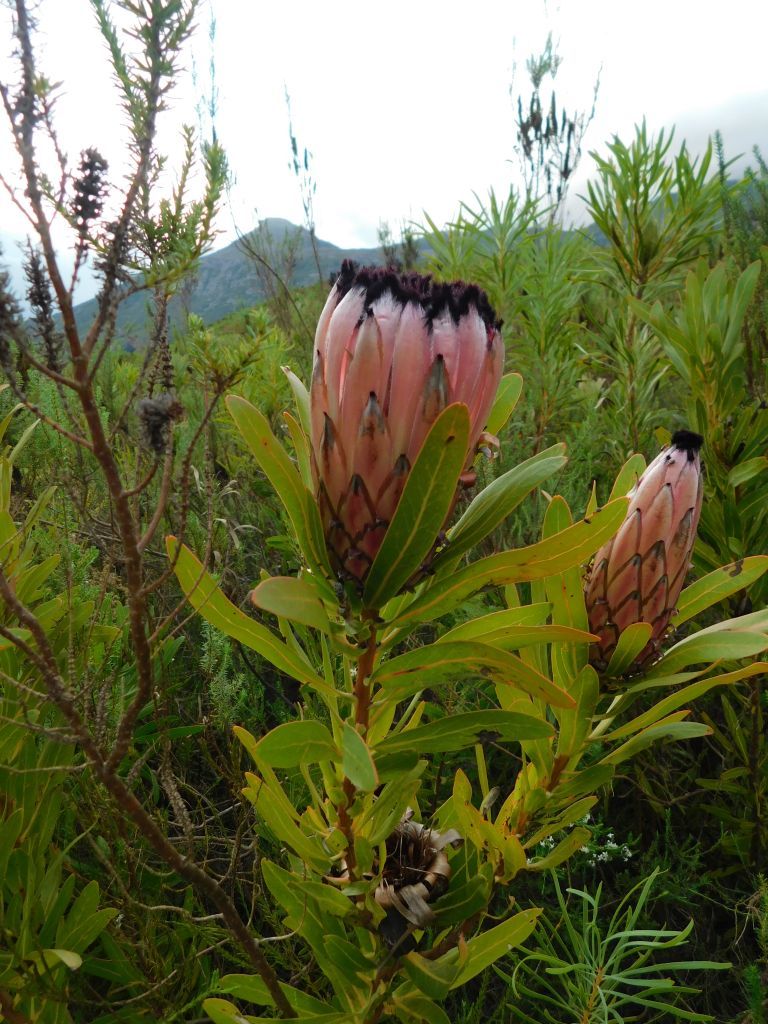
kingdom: Plantae
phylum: Tracheophyta
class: Magnoliopsida
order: Proteales
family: Proteaceae
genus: Protea
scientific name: Protea neriifolia
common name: Blue sugarbush
